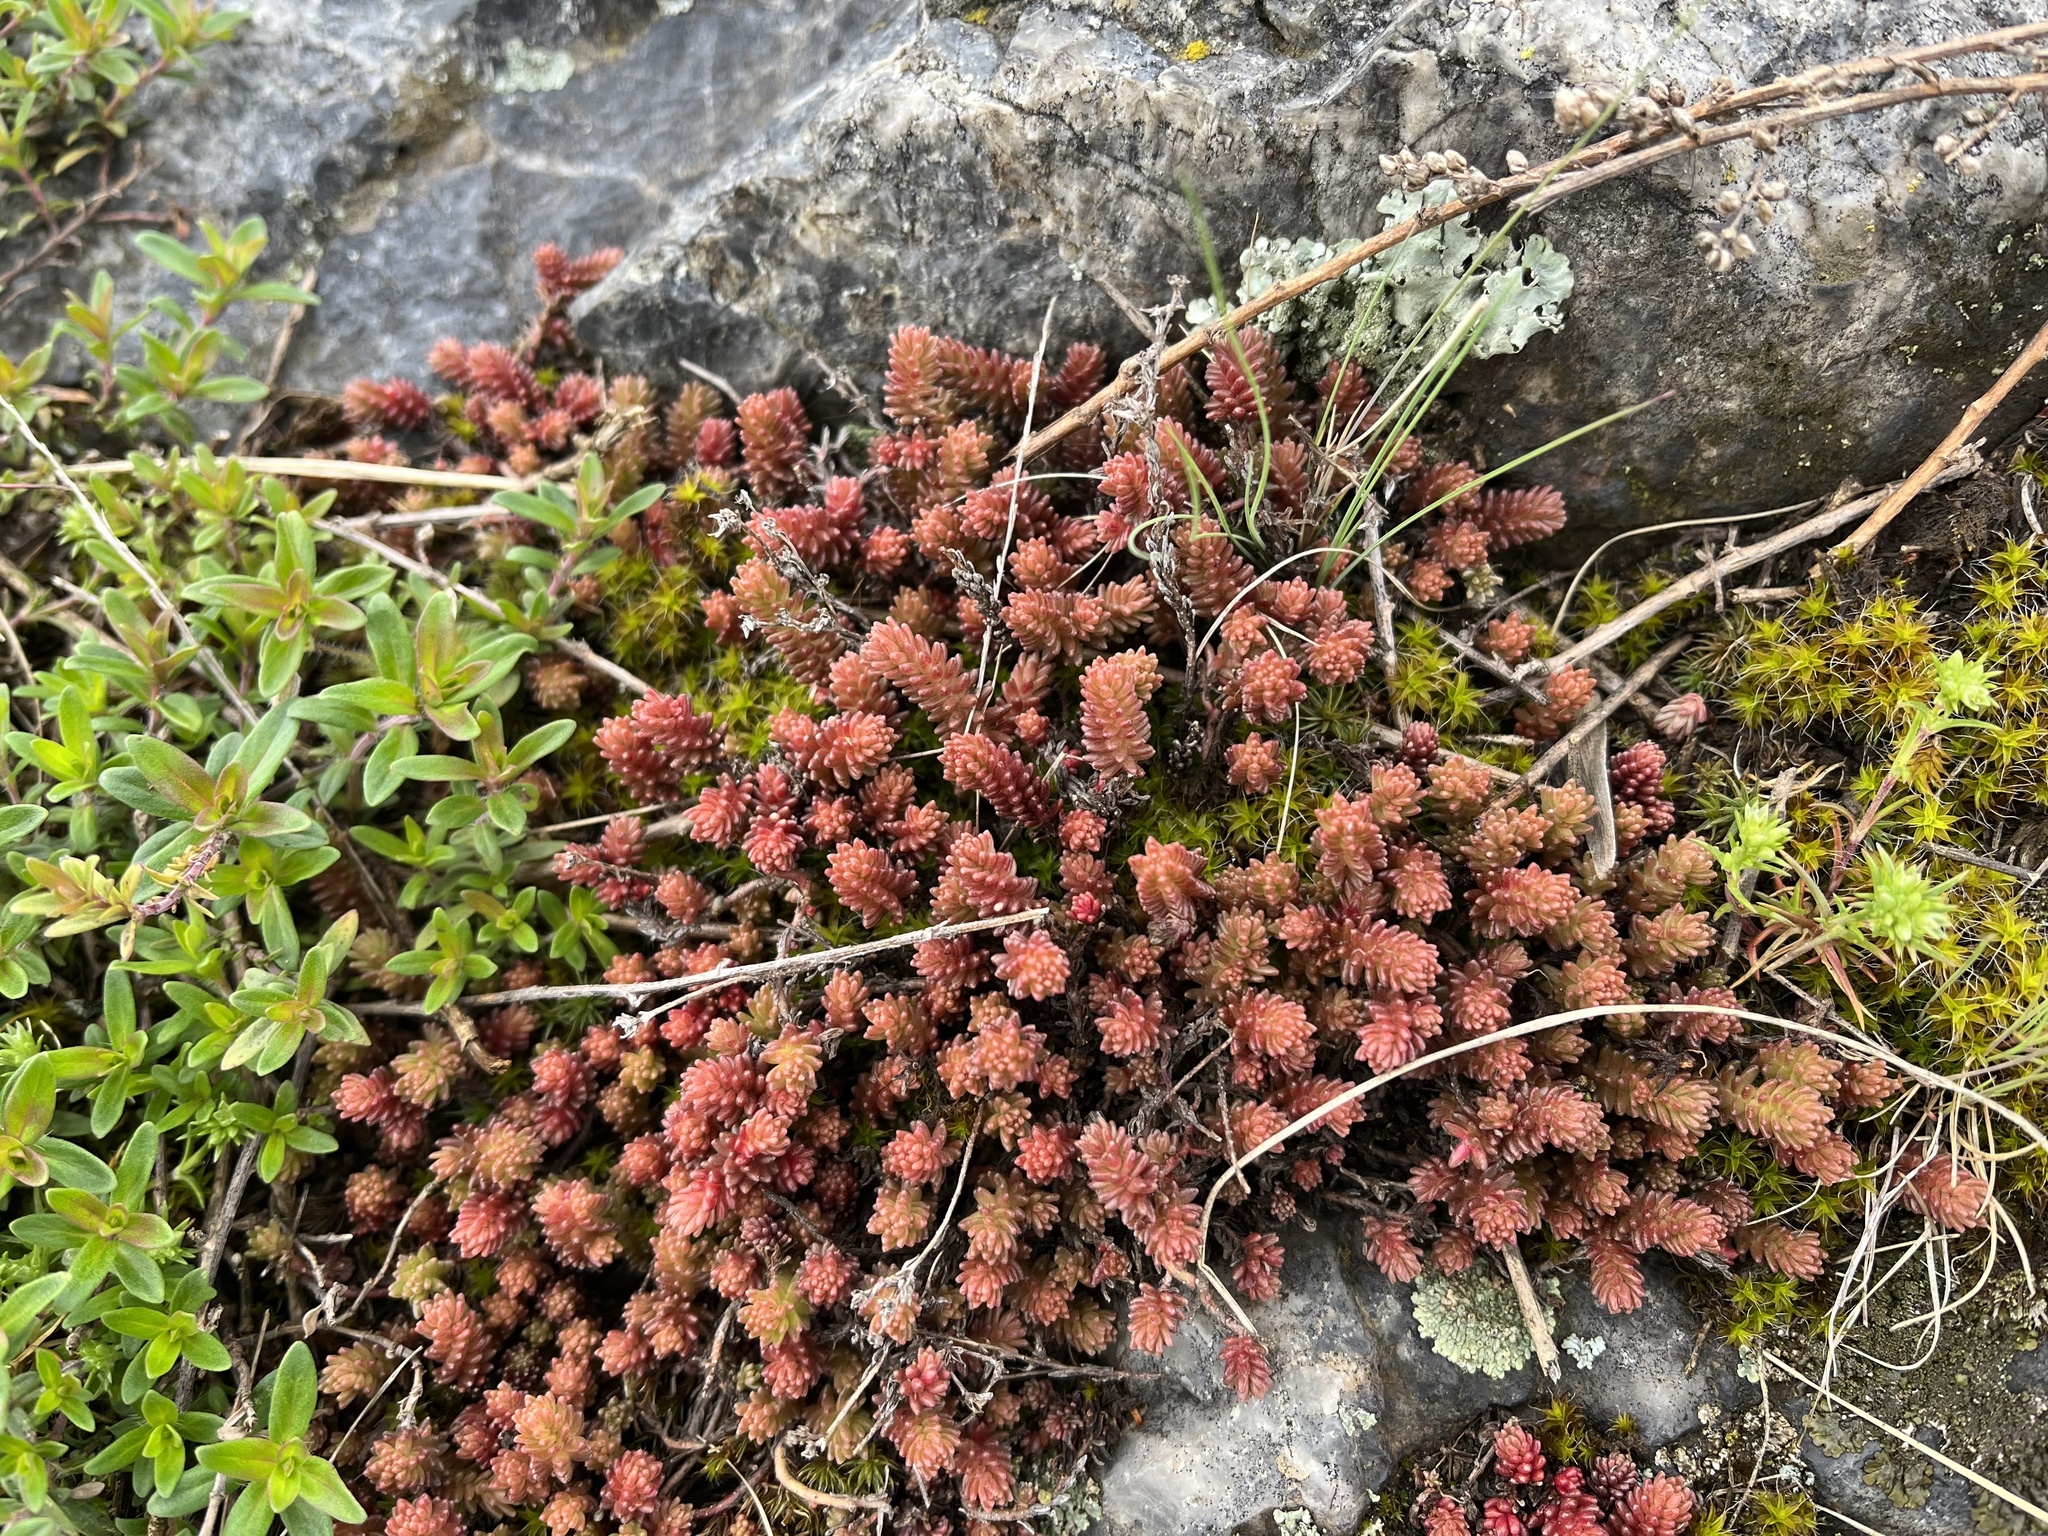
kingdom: Plantae
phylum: Tracheophyta
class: Magnoliopsida
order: Saxifragales
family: Crassulaceae
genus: Sedum
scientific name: Sedum sexangulare
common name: Tasteless stonecrop
